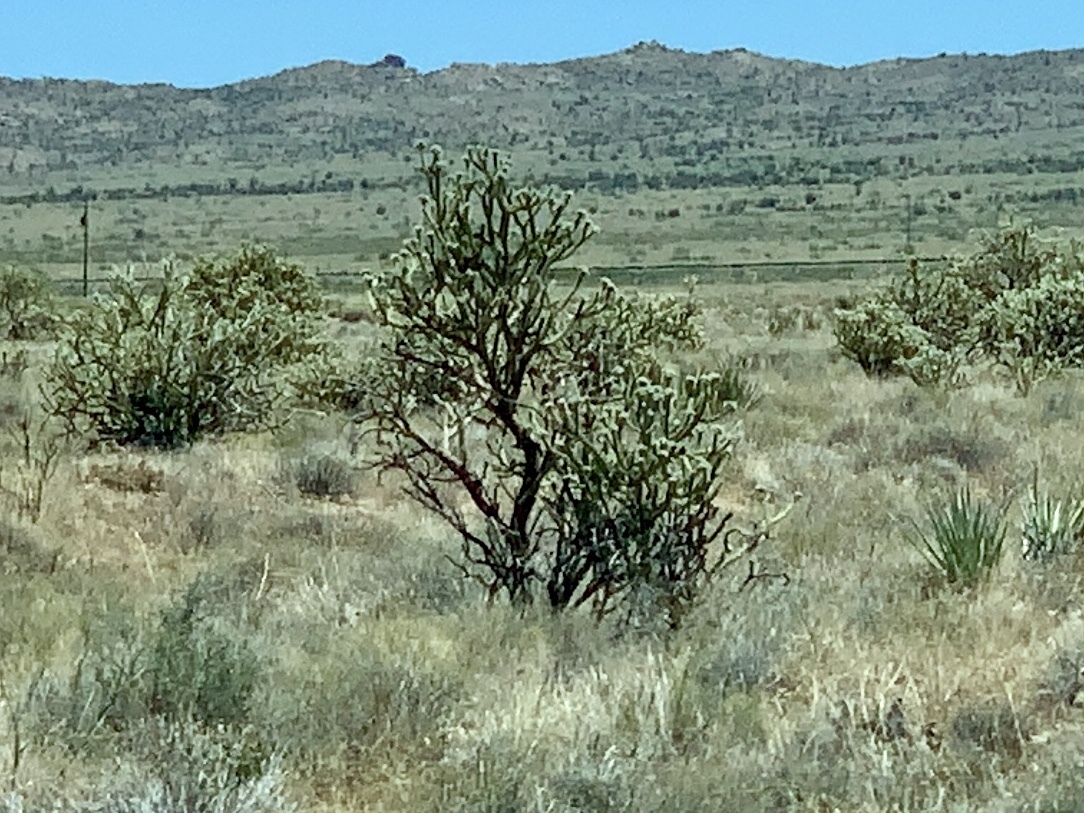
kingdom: Plantae
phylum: Tracheophyta
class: Magnoliopsida
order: Caryophyllales
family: Cactaceae
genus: Cylindropuntia
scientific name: Cylindropuntia acanthocarpa
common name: Buckhorn cholla
